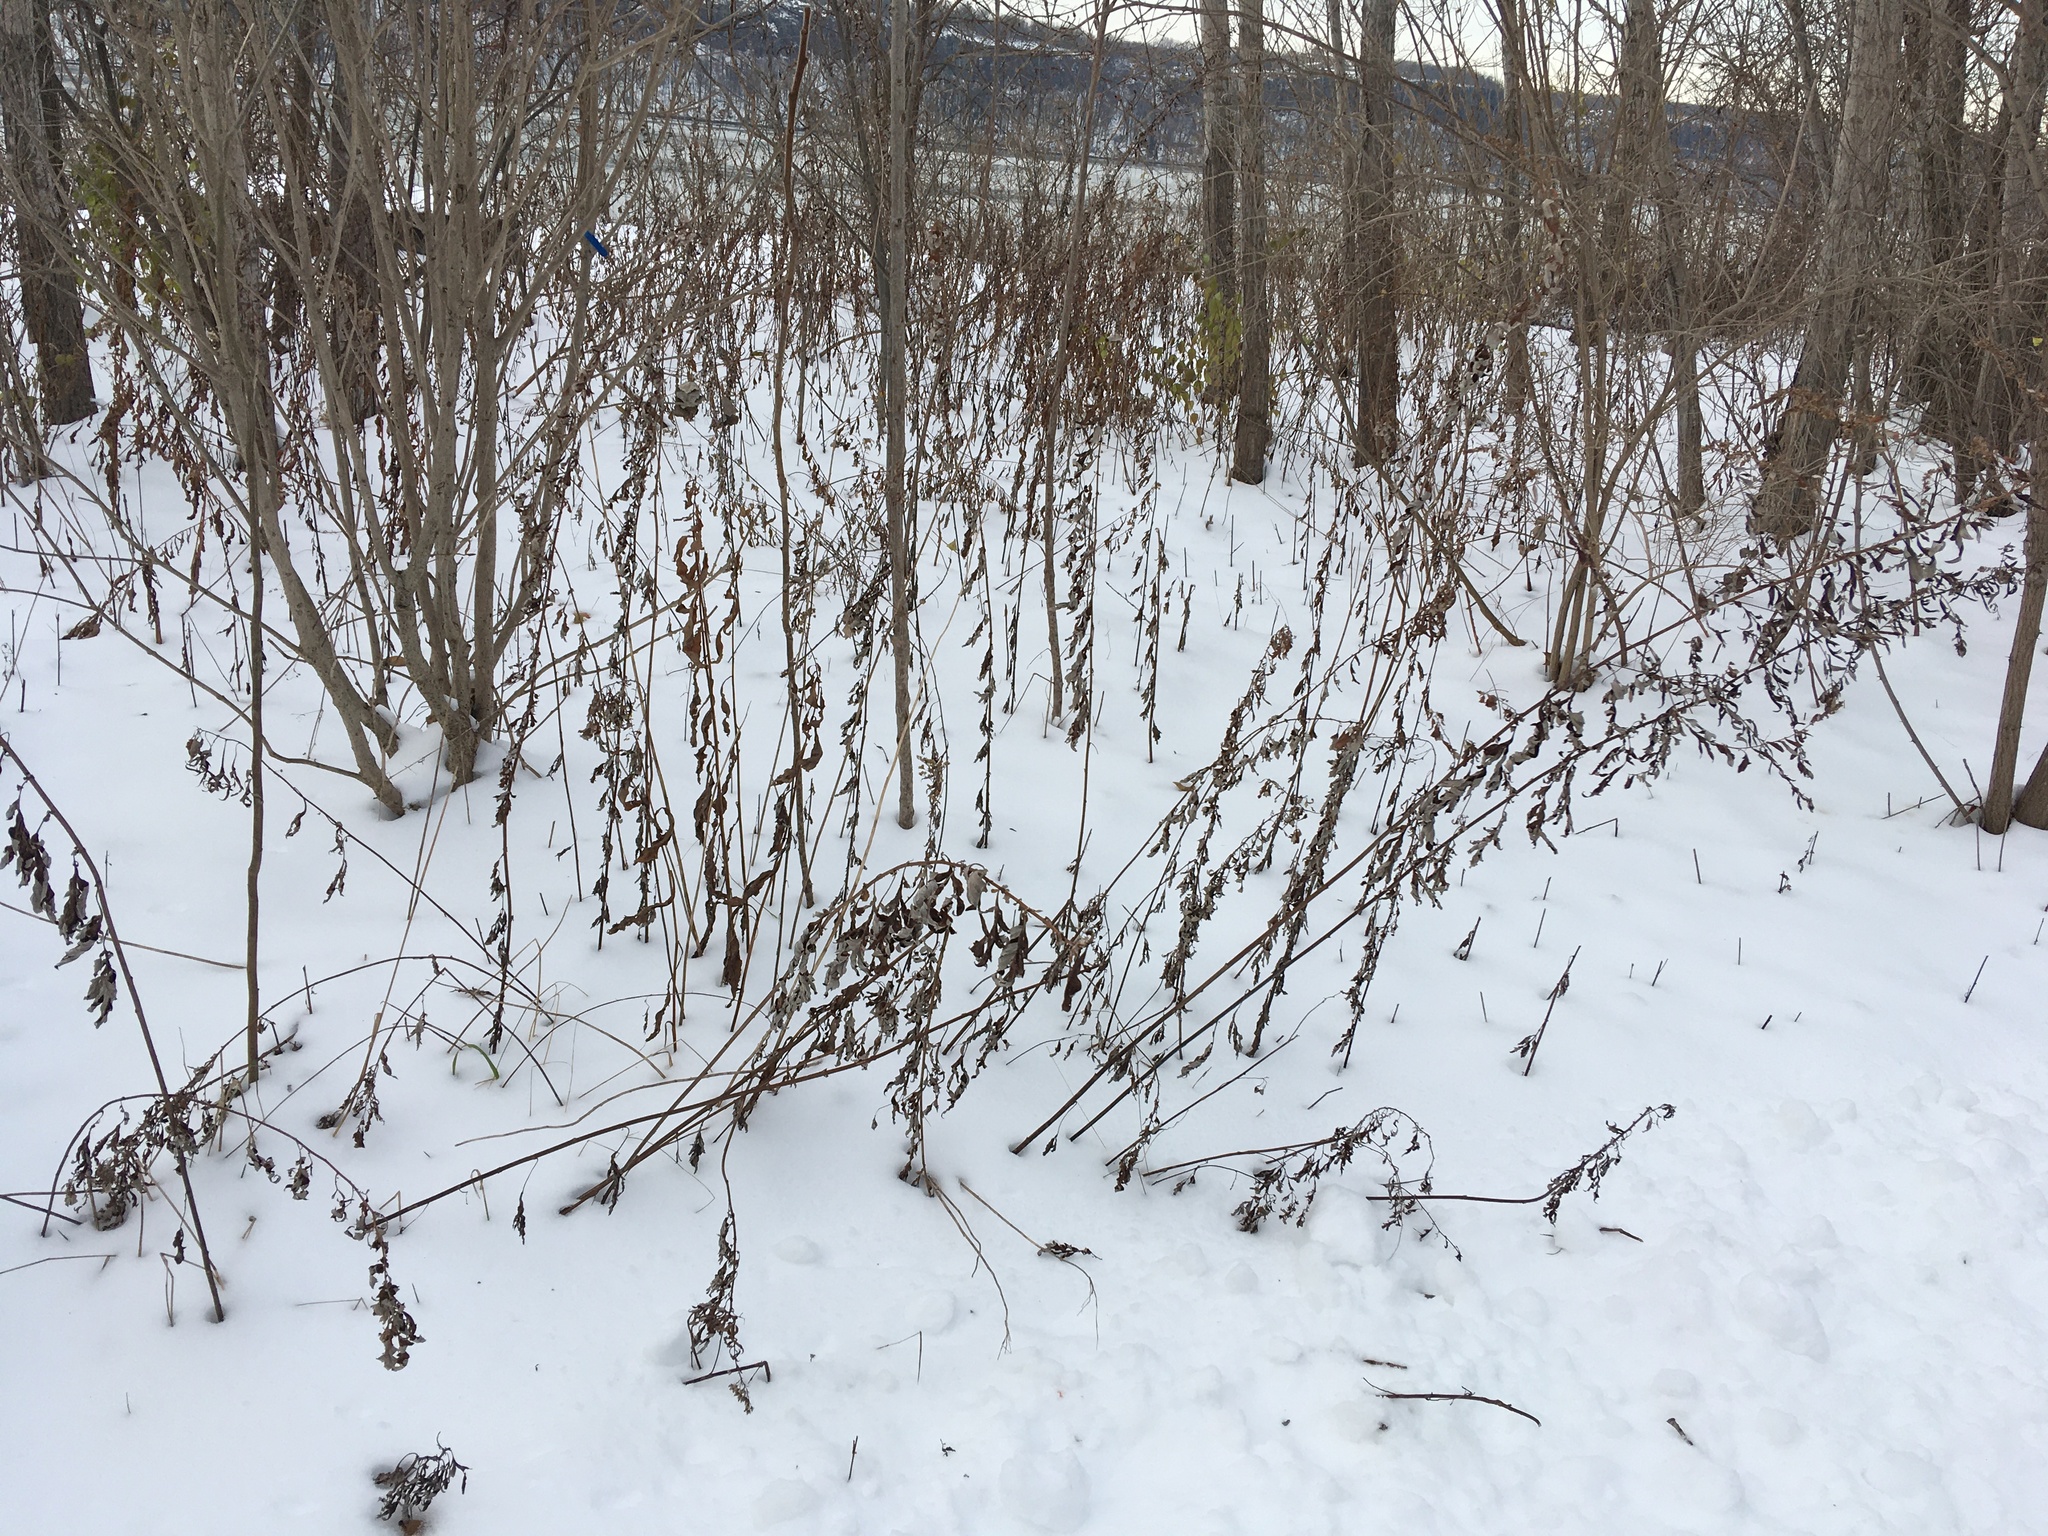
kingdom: Plantae
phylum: Tracheophyta
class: Magnoliopsida
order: Asterales
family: Asteraceae
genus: Artemisia
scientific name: Artemisia vulgaris
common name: Mugwort
